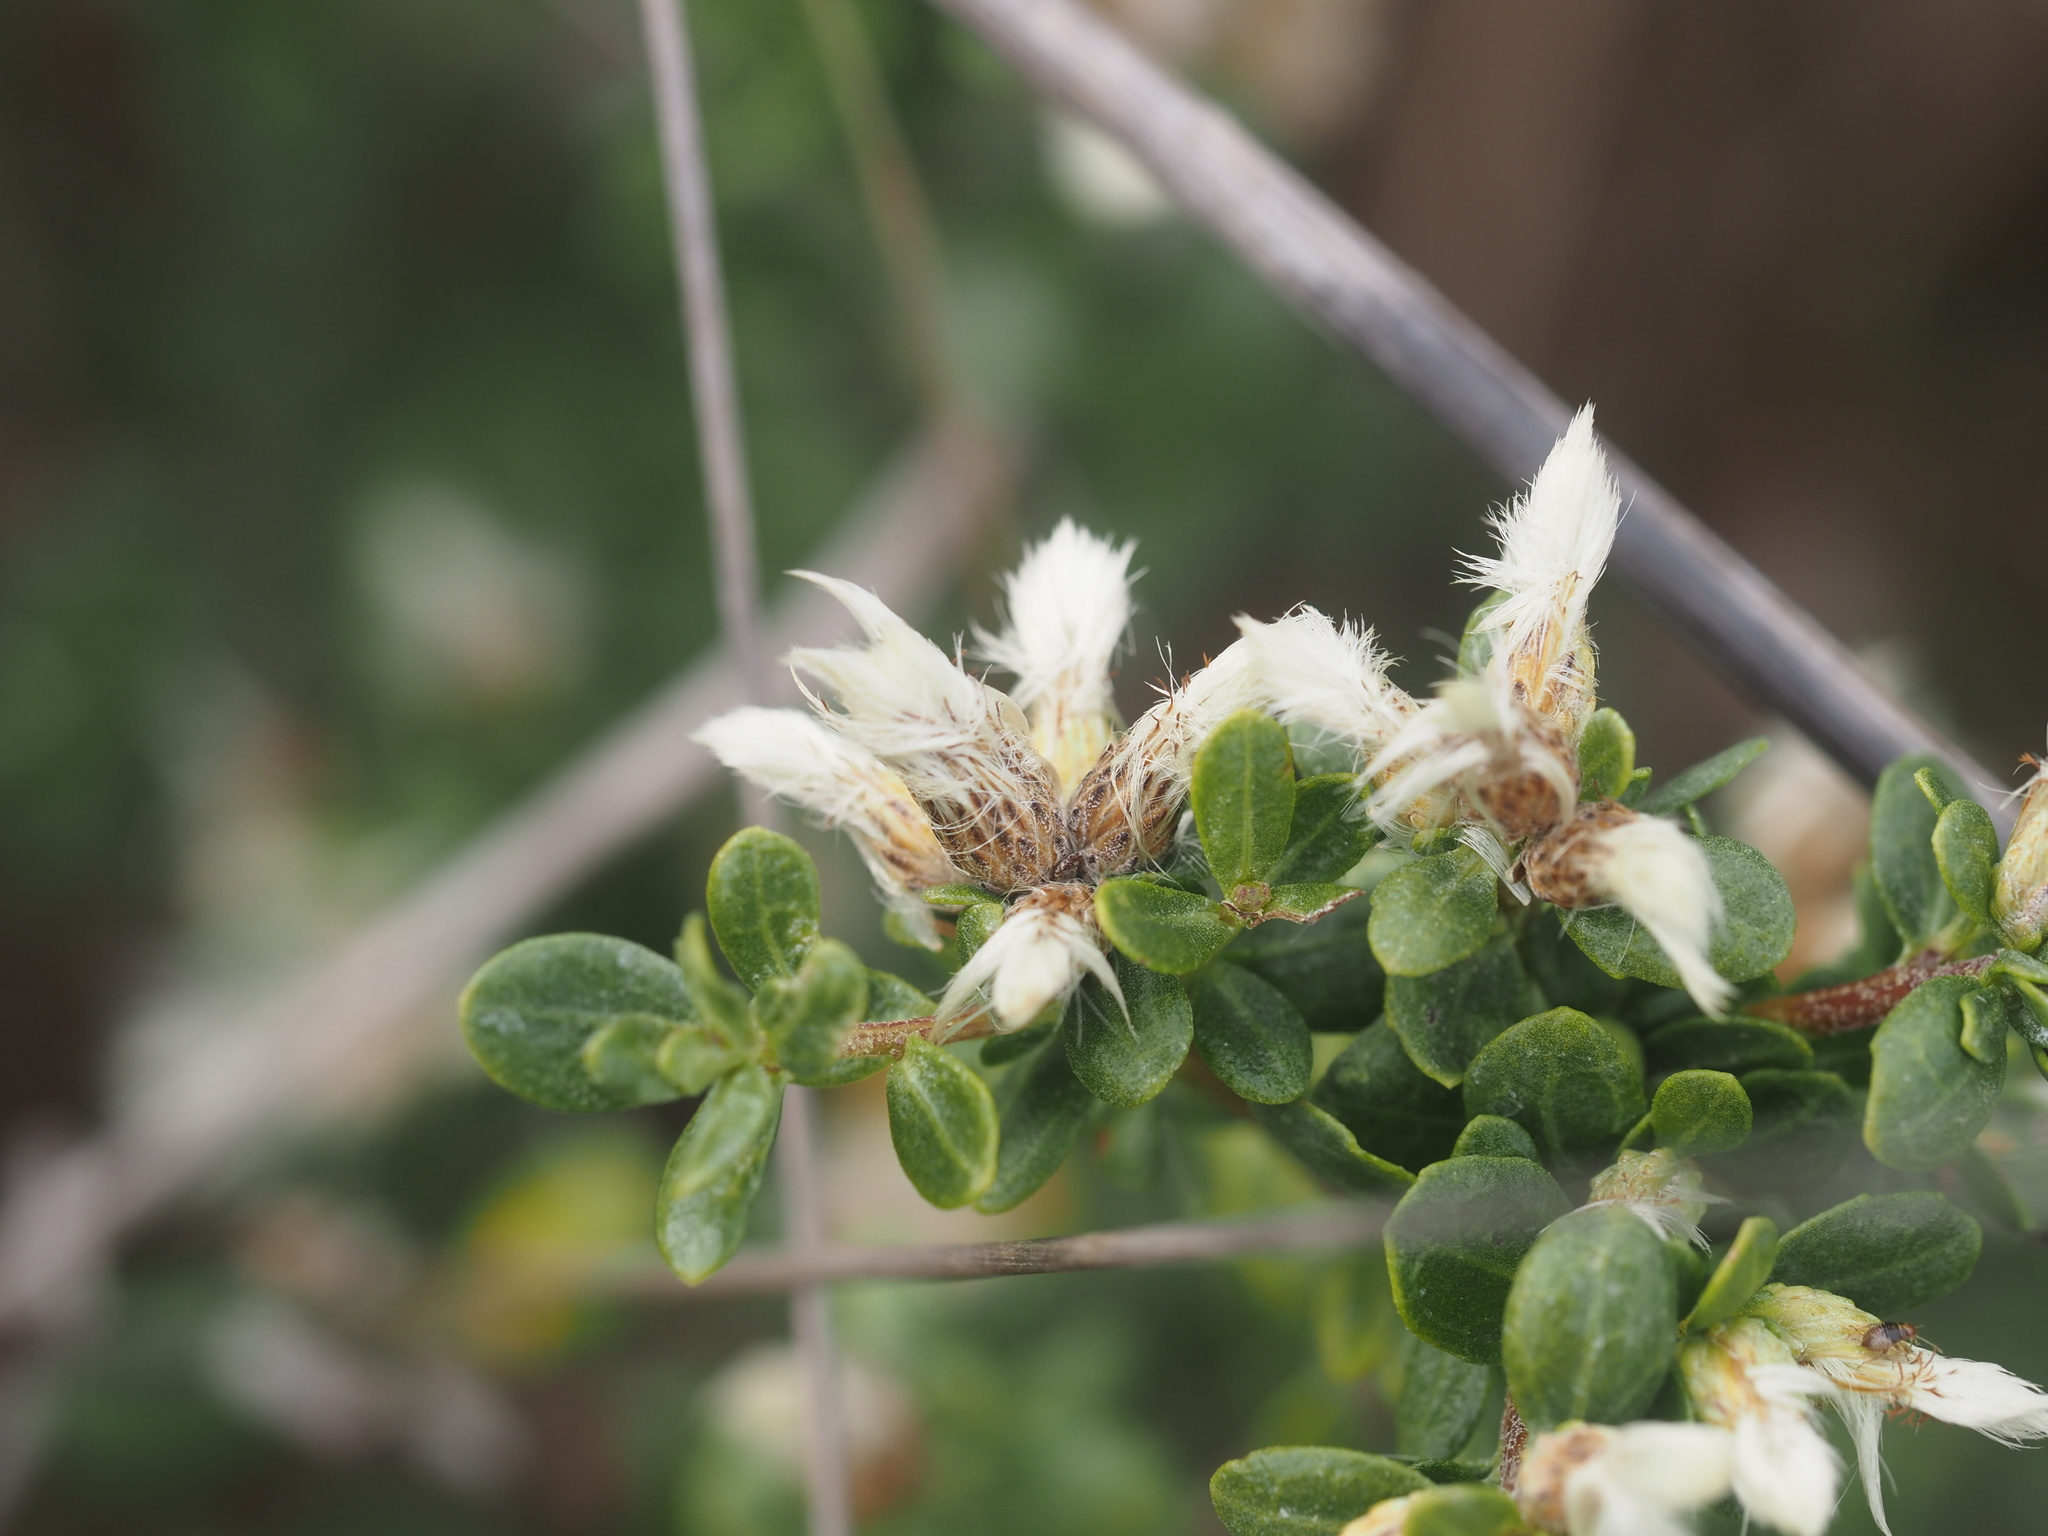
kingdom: Plantae
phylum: Tracheophyta
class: Magnoliopsida
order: Asterales
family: Asteraceae
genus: Baccharis
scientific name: Baccharis pilularis
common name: Coyotebrush
